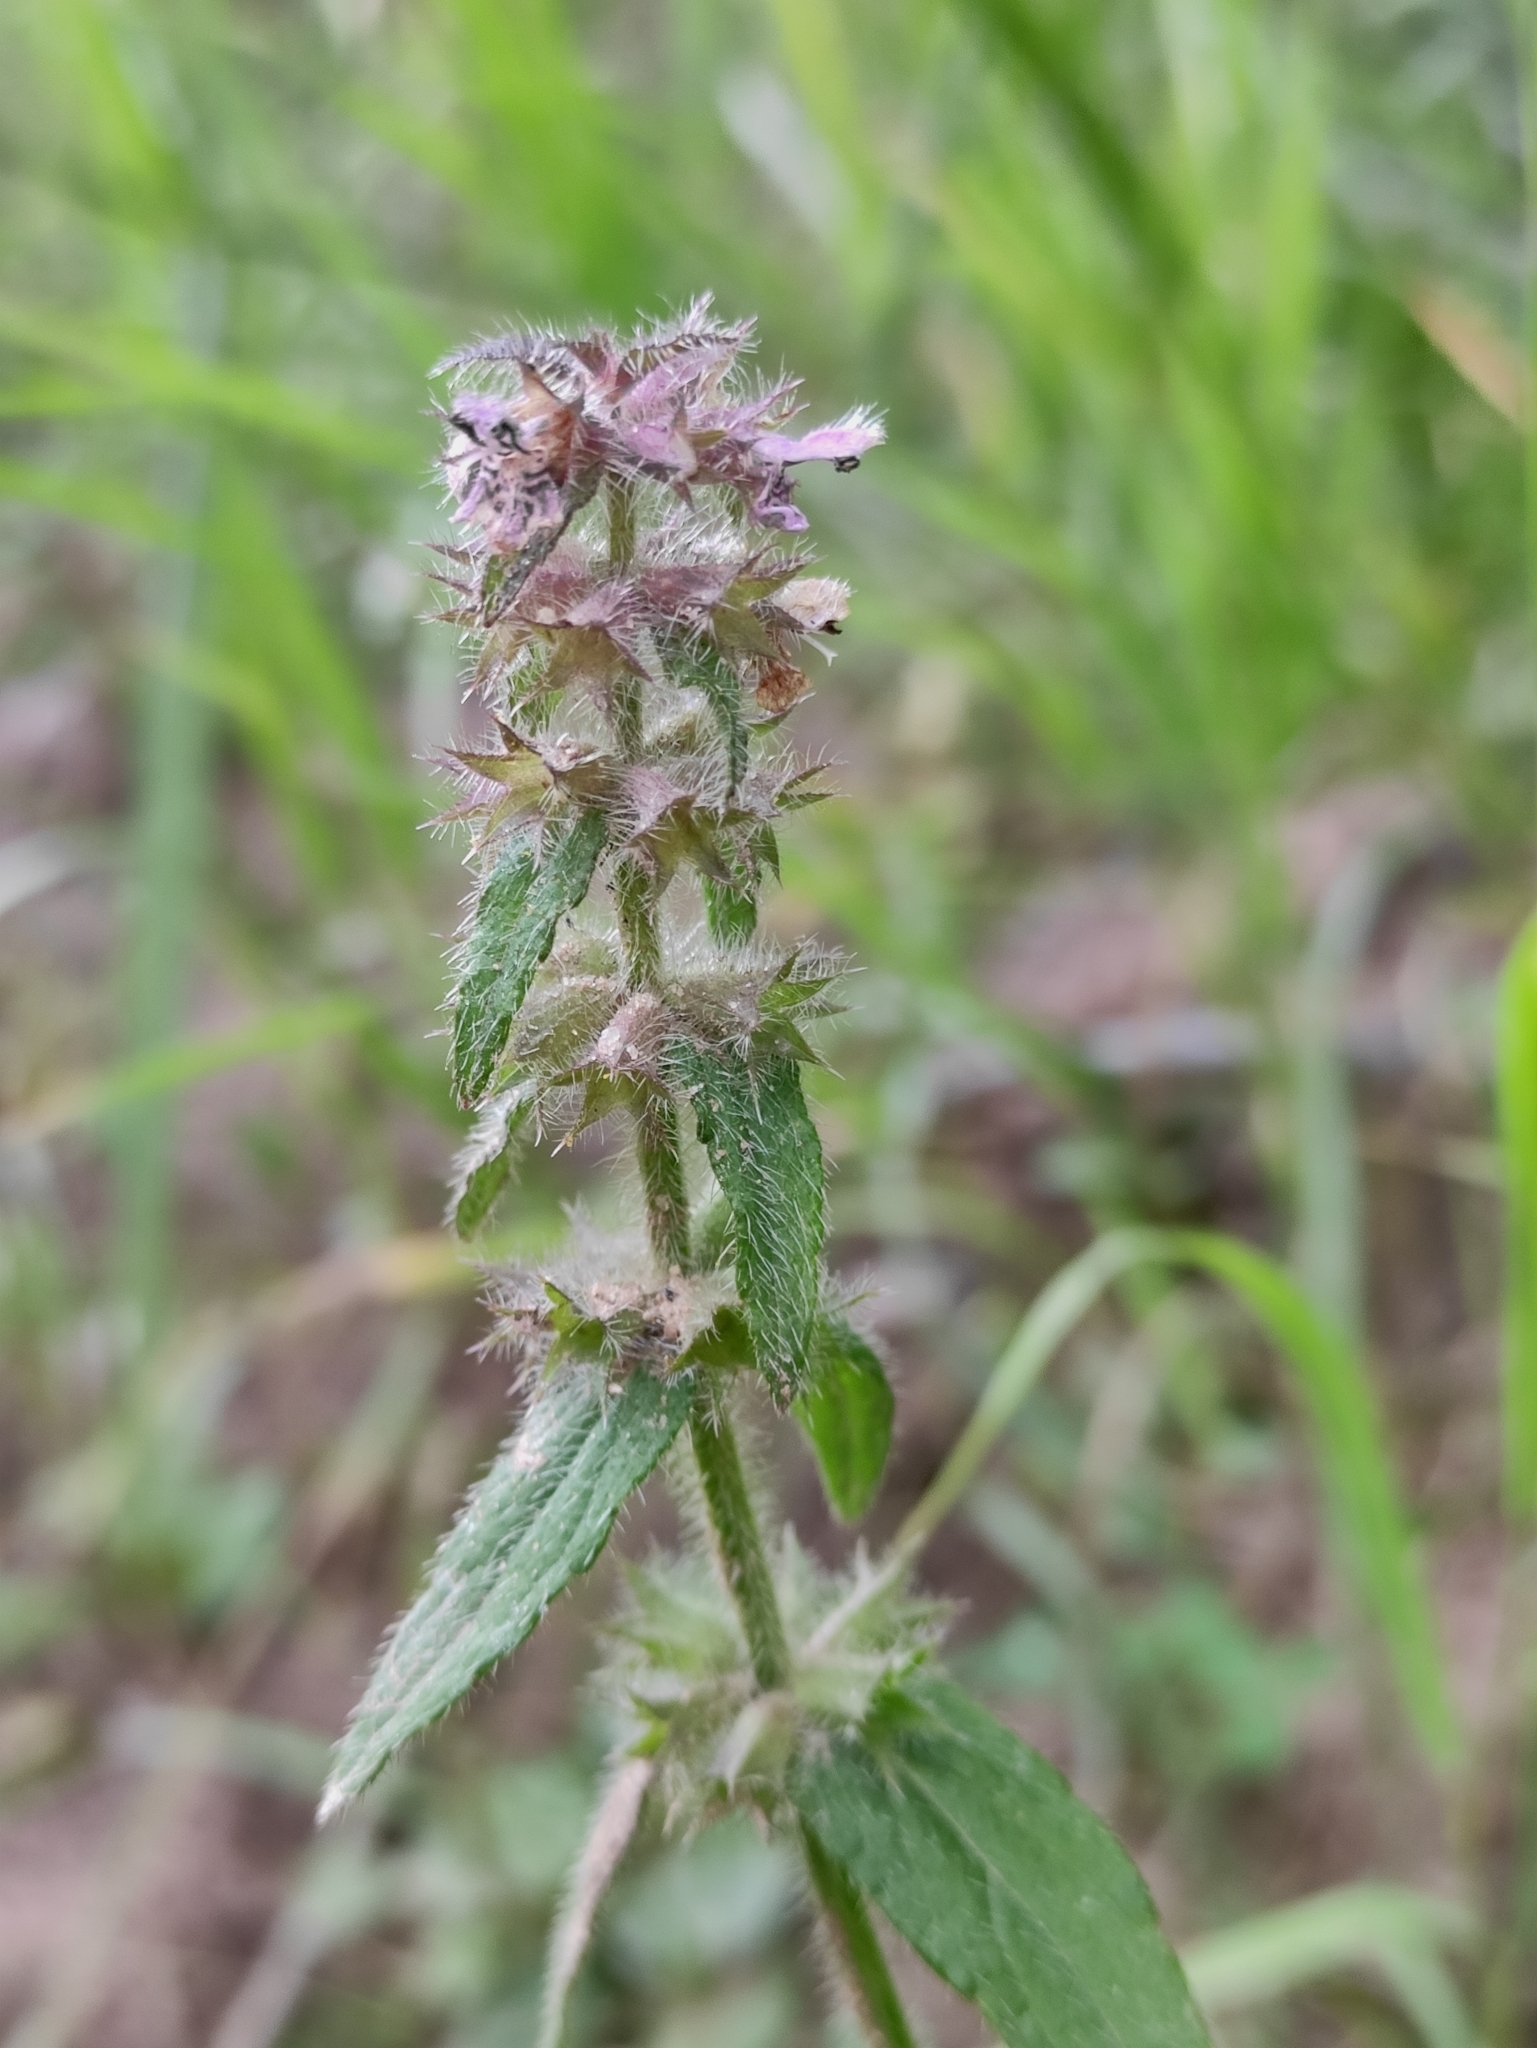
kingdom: Plantae
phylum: Tracheophyta
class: Magnoliopsida
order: Lamiales
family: Lamiaceae
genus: Stachys
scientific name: Stachys aspera
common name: Hyssopleaf hedgenettle
